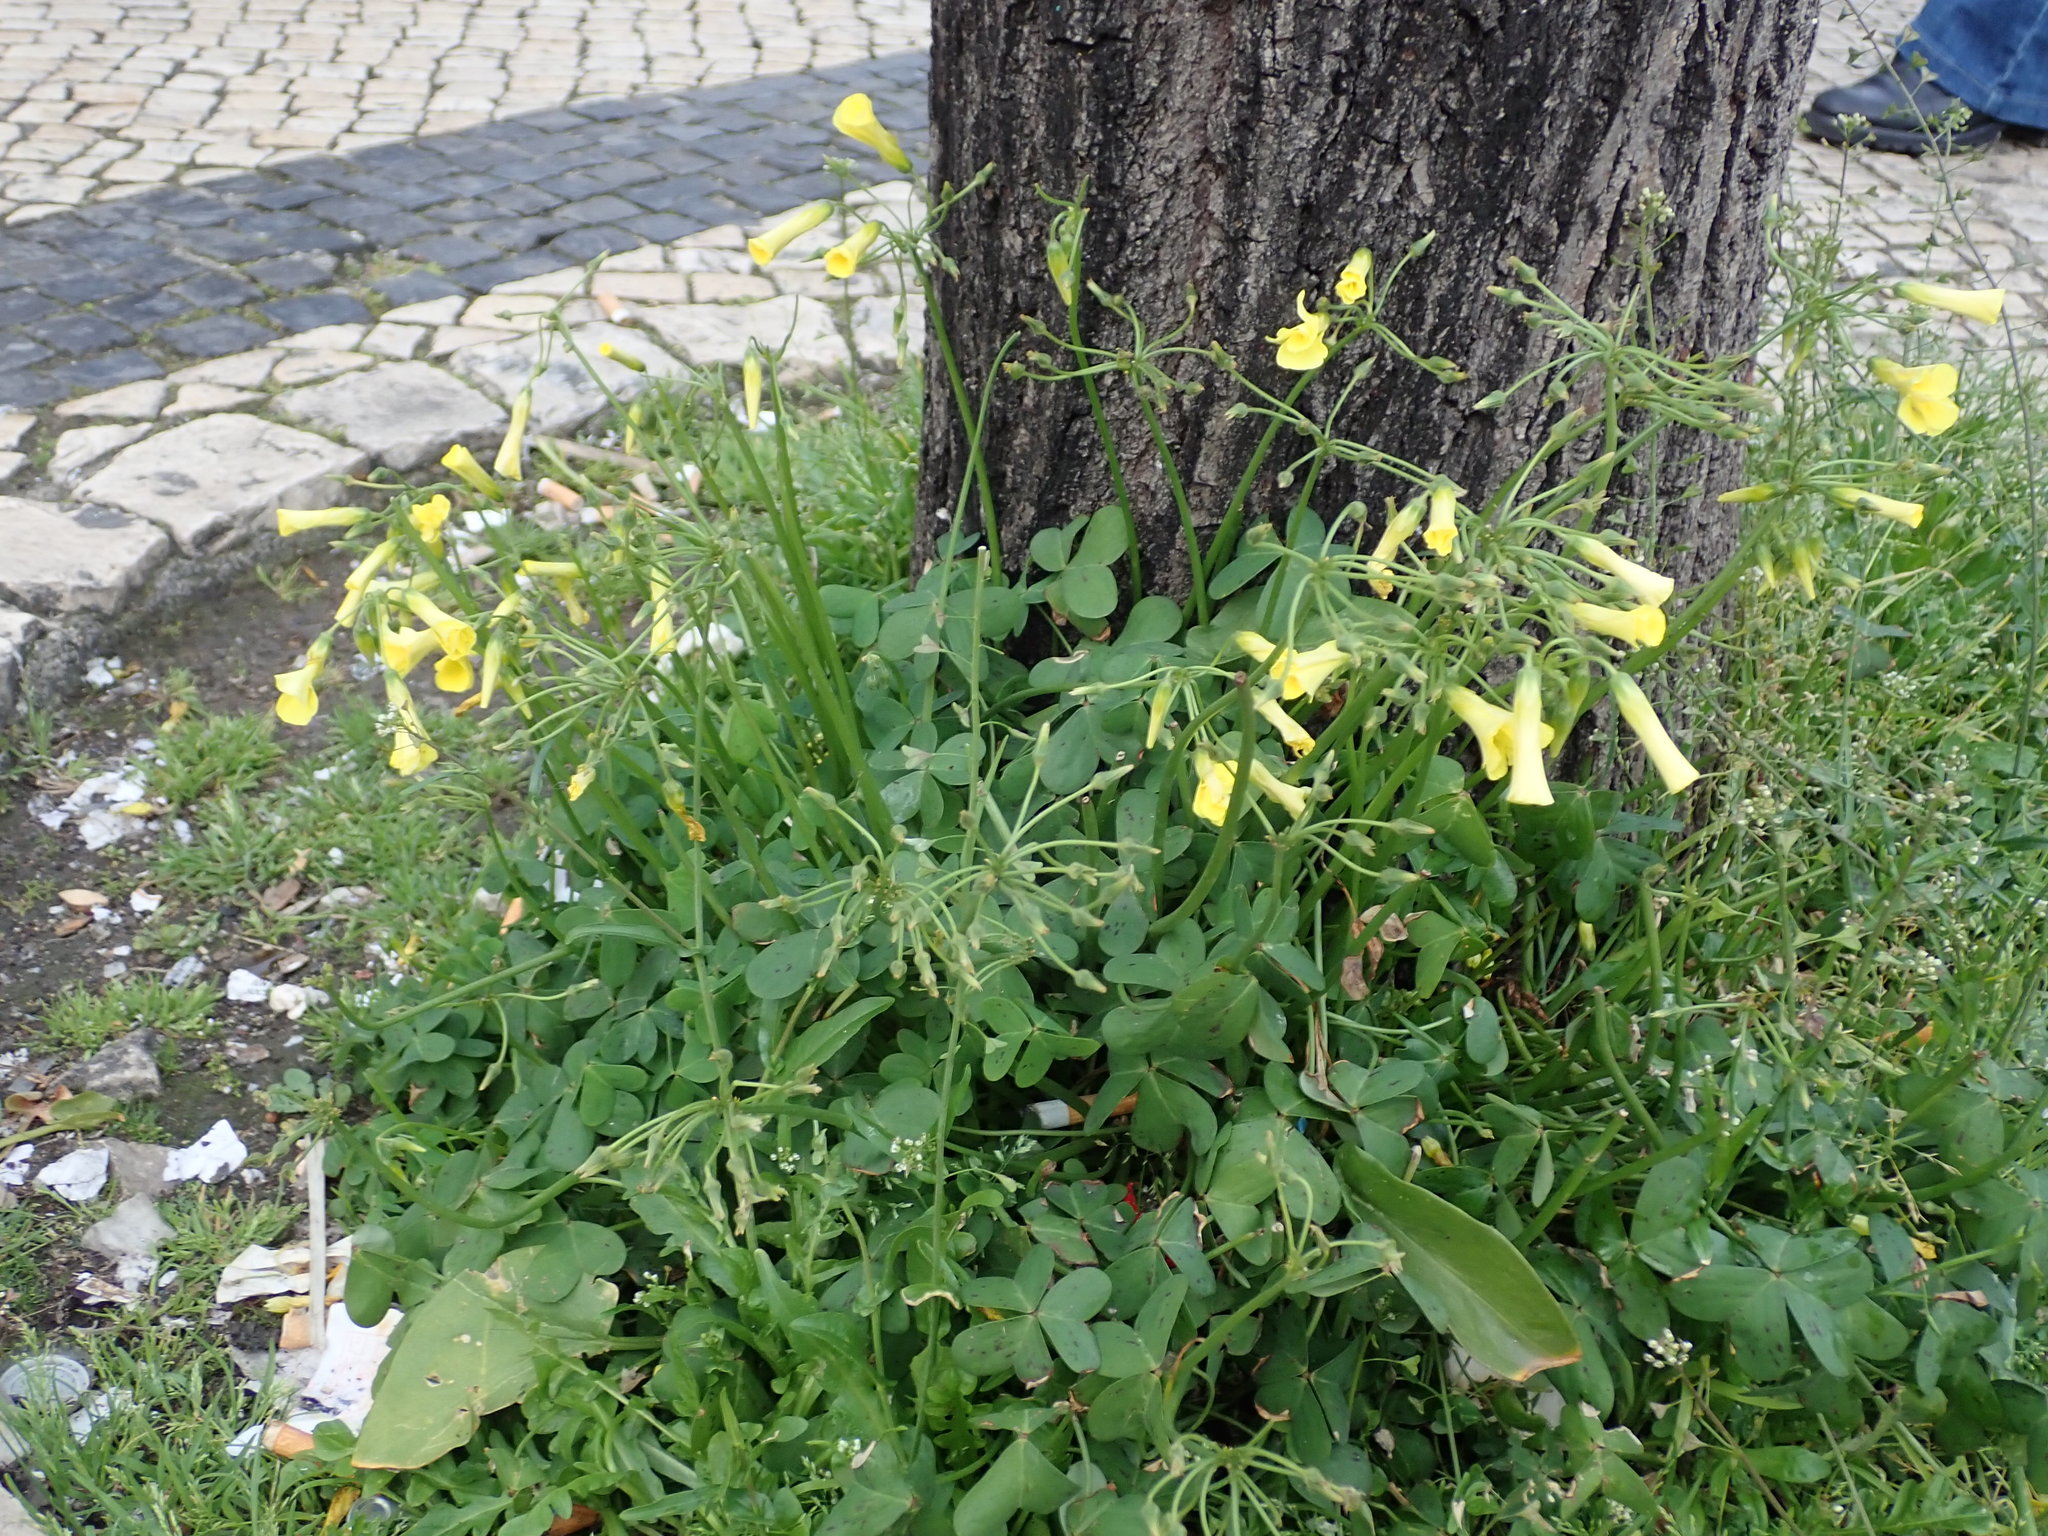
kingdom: Plantae
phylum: Tracheophyta
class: Magnoliopsida
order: Oxalidales
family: Oxalidaceae
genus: Oxalis
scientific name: Oxalis pes-caprae
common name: Bermuda-buttercup
